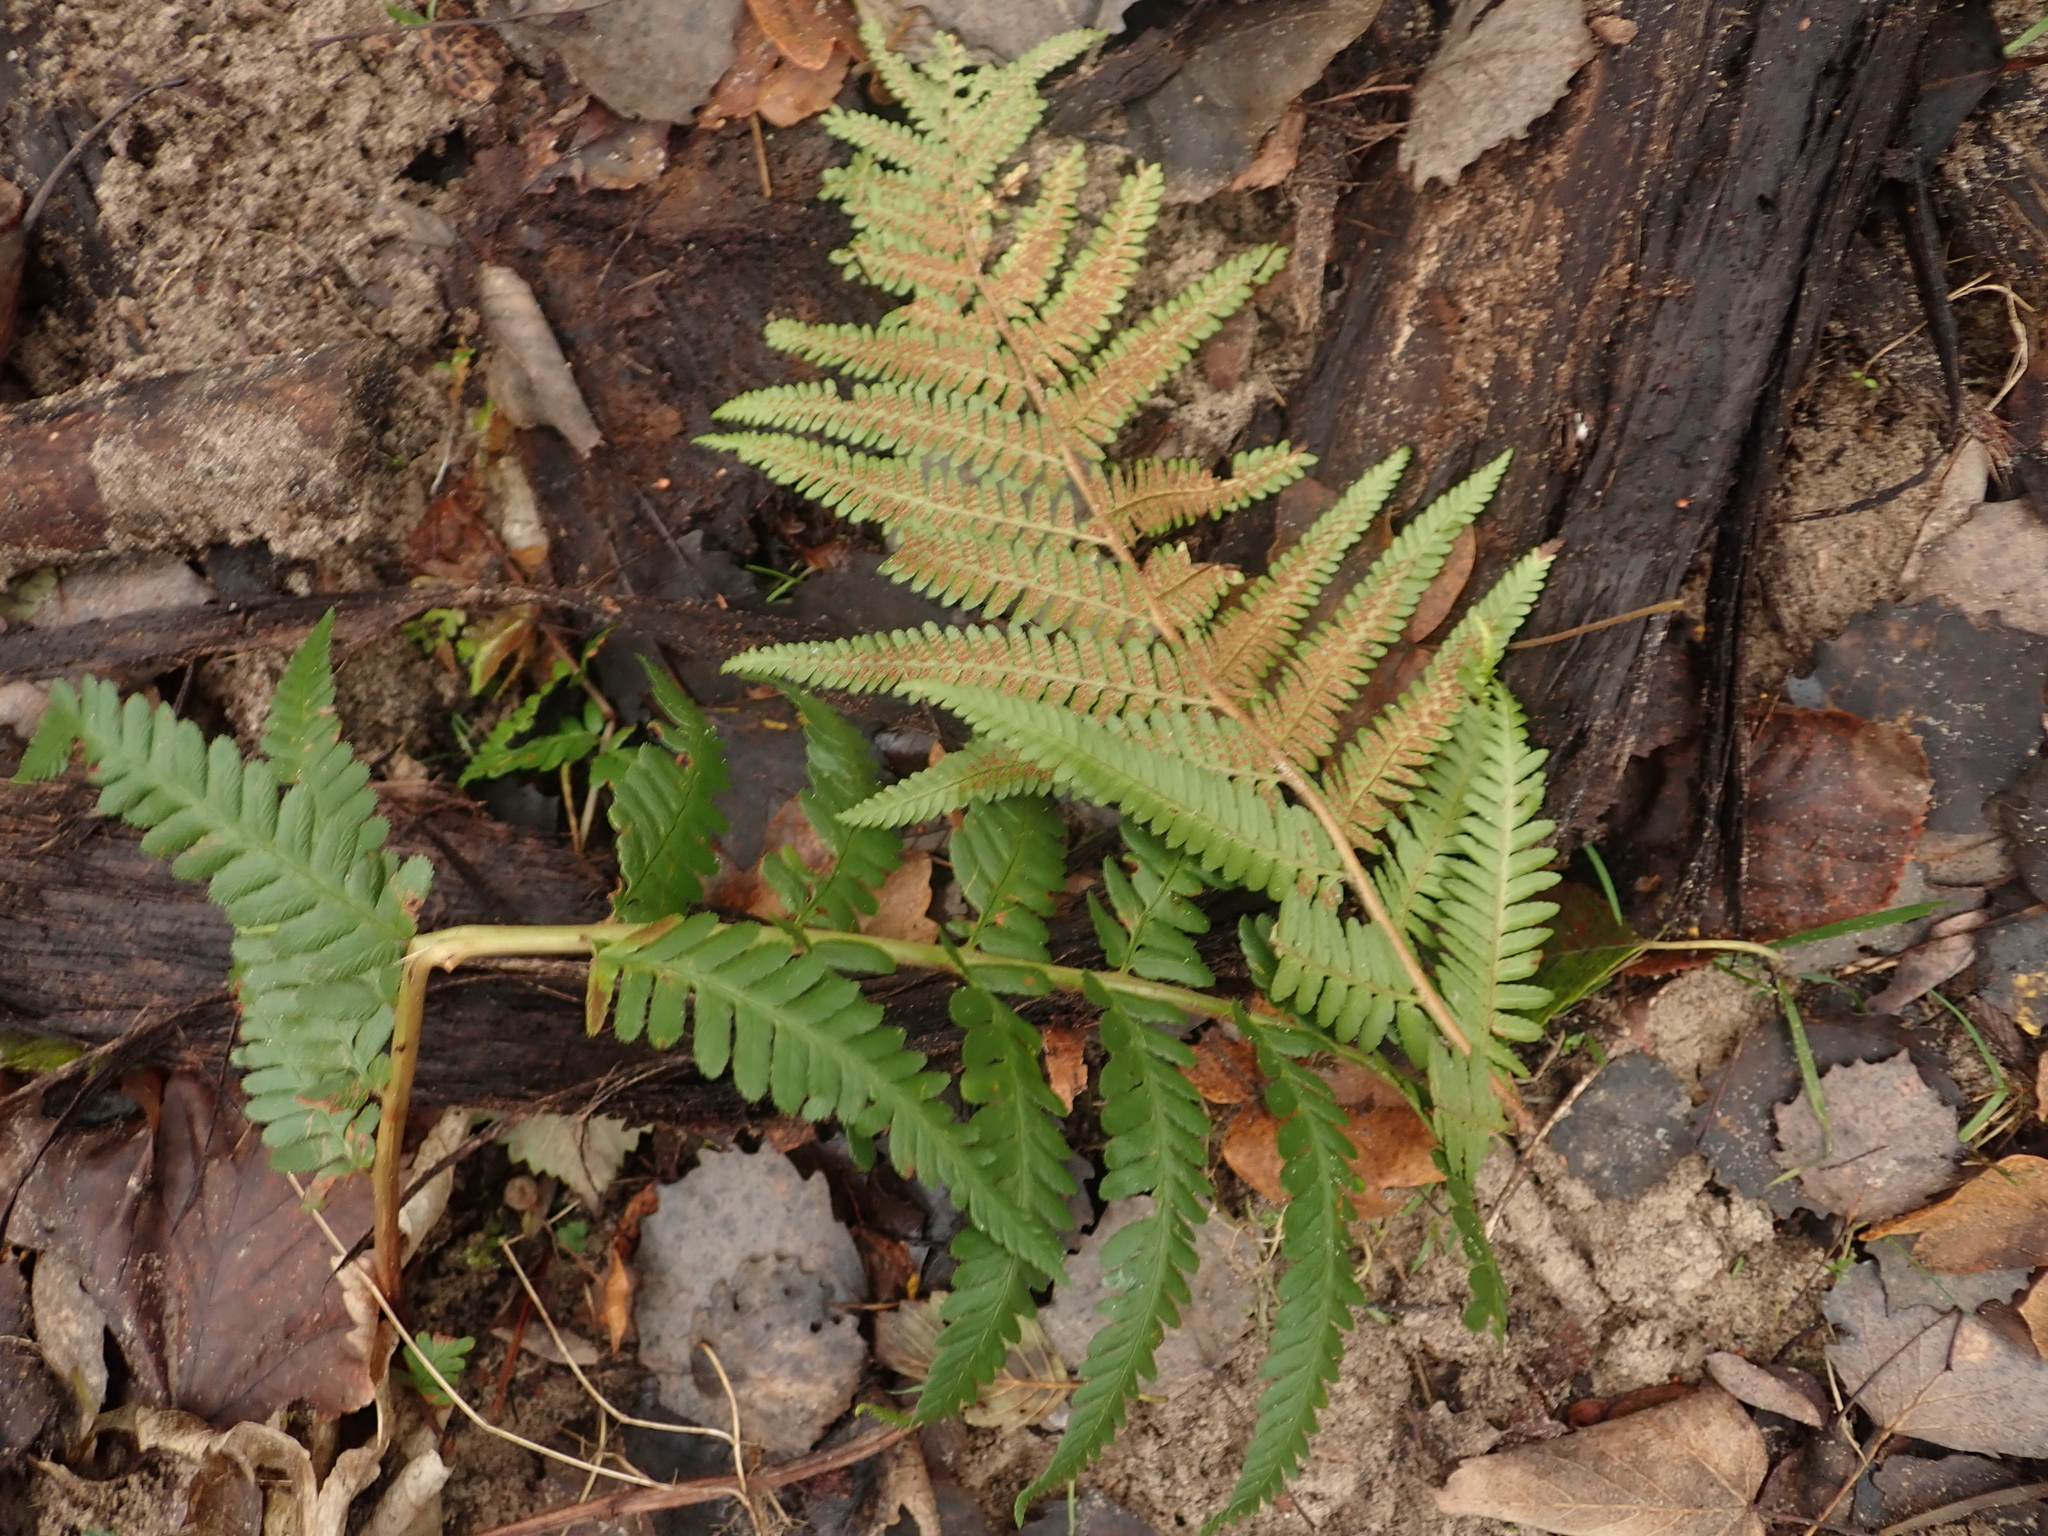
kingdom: Plantae
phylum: Tracheophyta
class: Polypodiopsida
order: Polypodiales
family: Dryopteridaceae
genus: Dryopteris
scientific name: Dryopteris filix-mas
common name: Male fern
